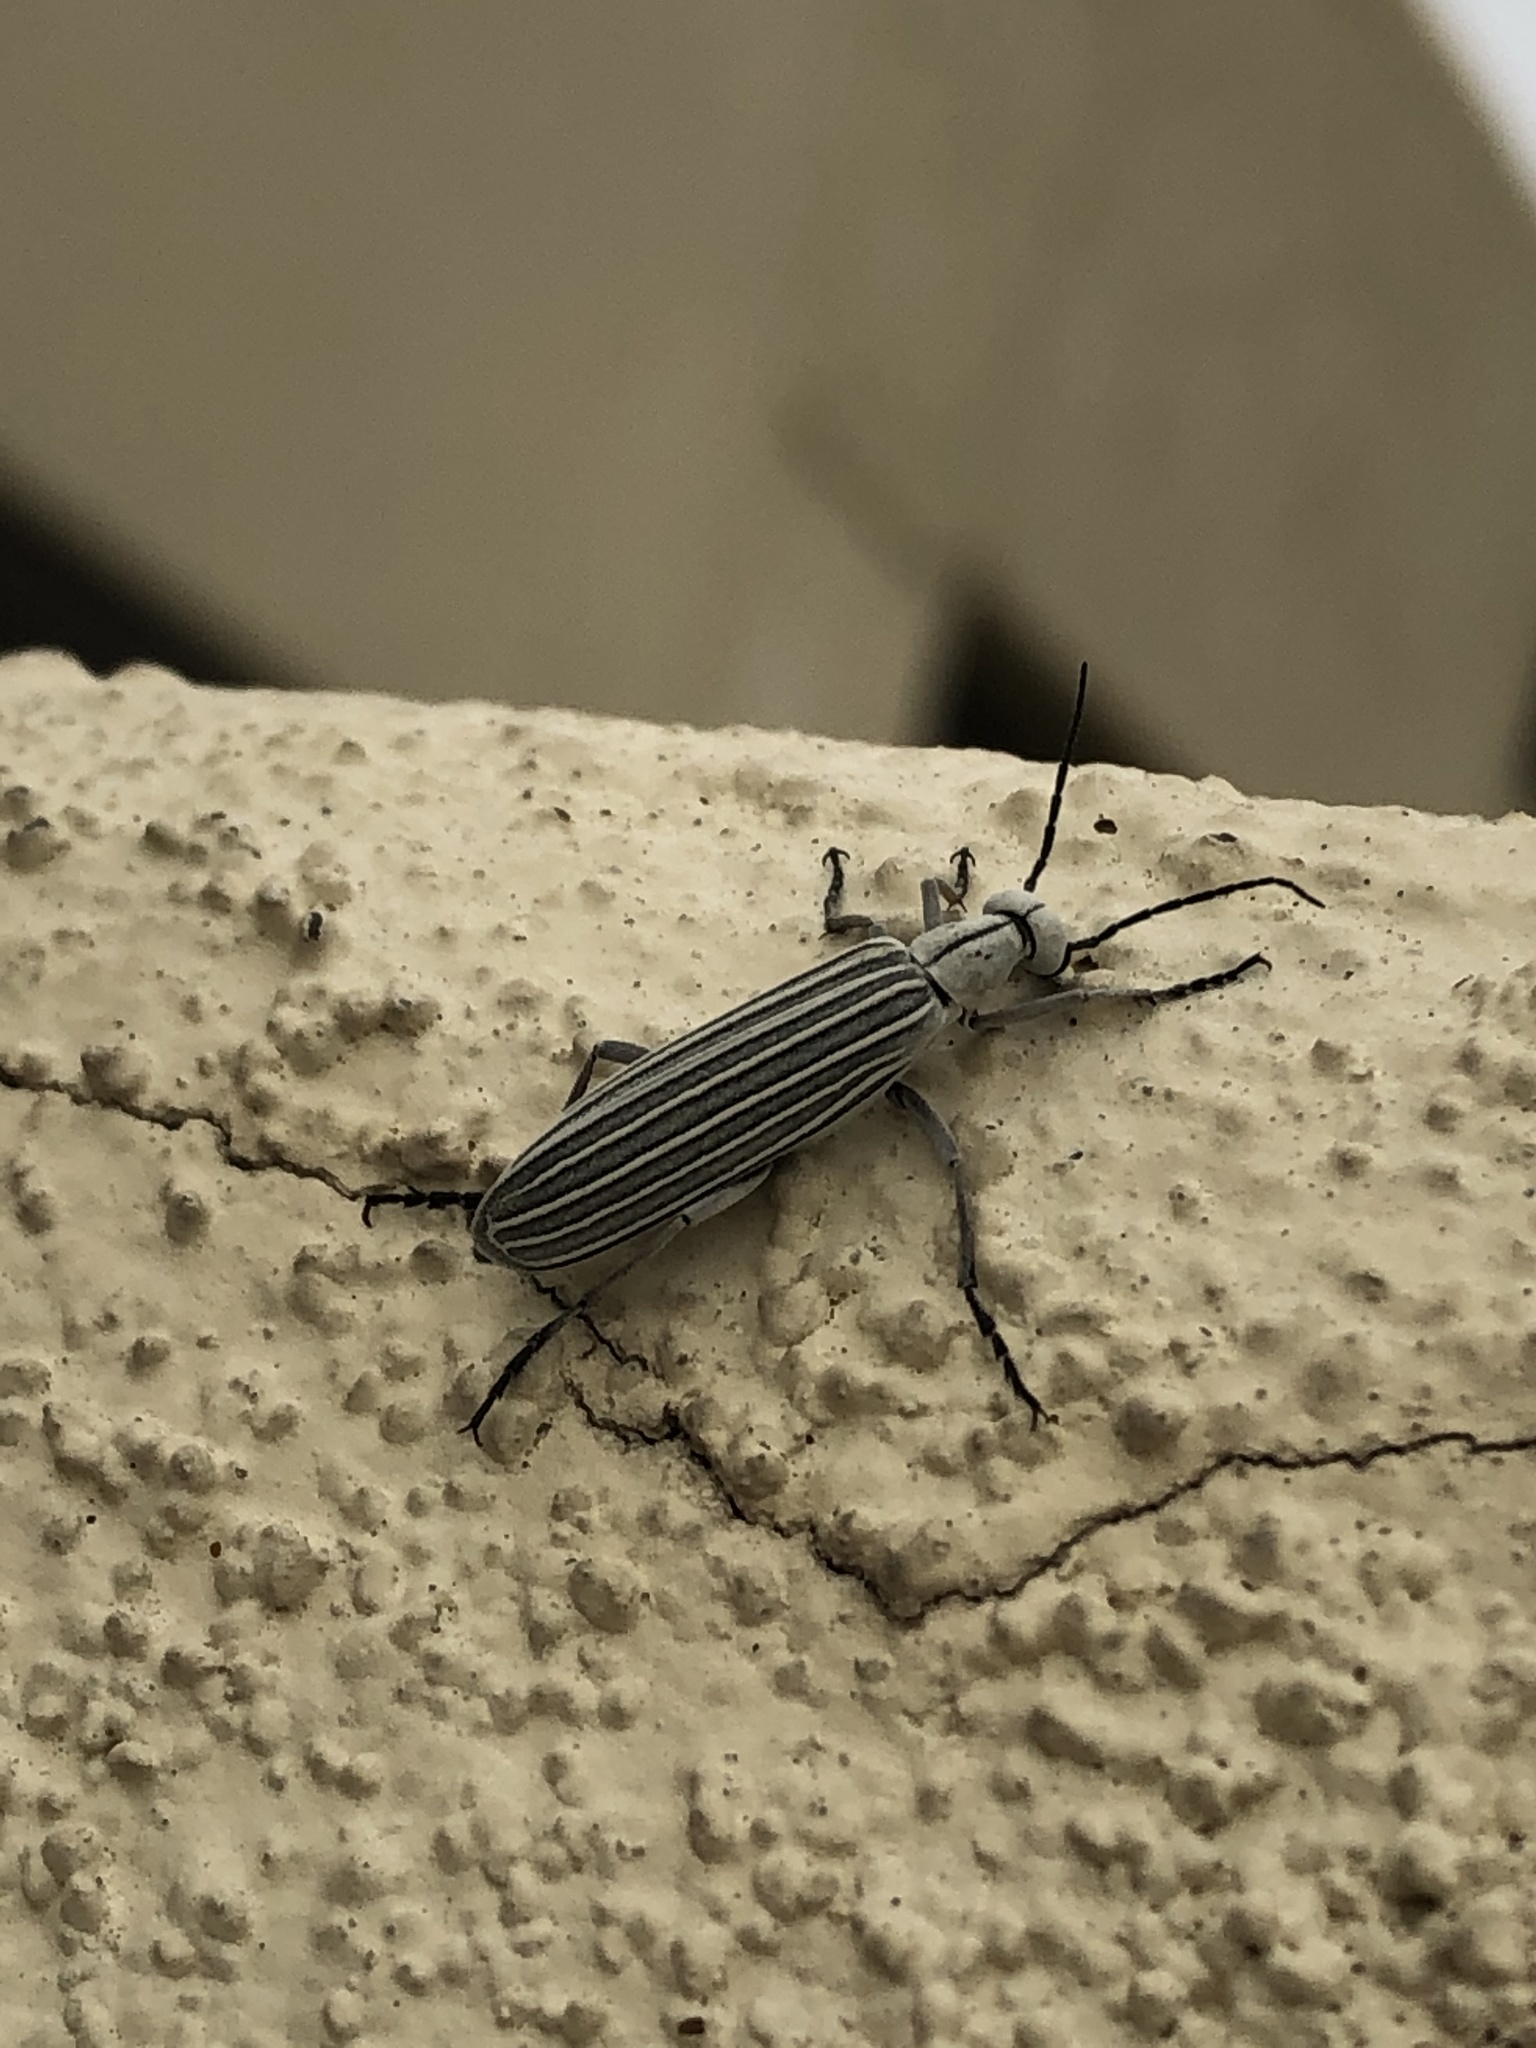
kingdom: Animalia
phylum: Arthropoda
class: Insecta
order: Coleoptera
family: Meloidae
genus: Epicauta
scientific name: Epicauta costata
